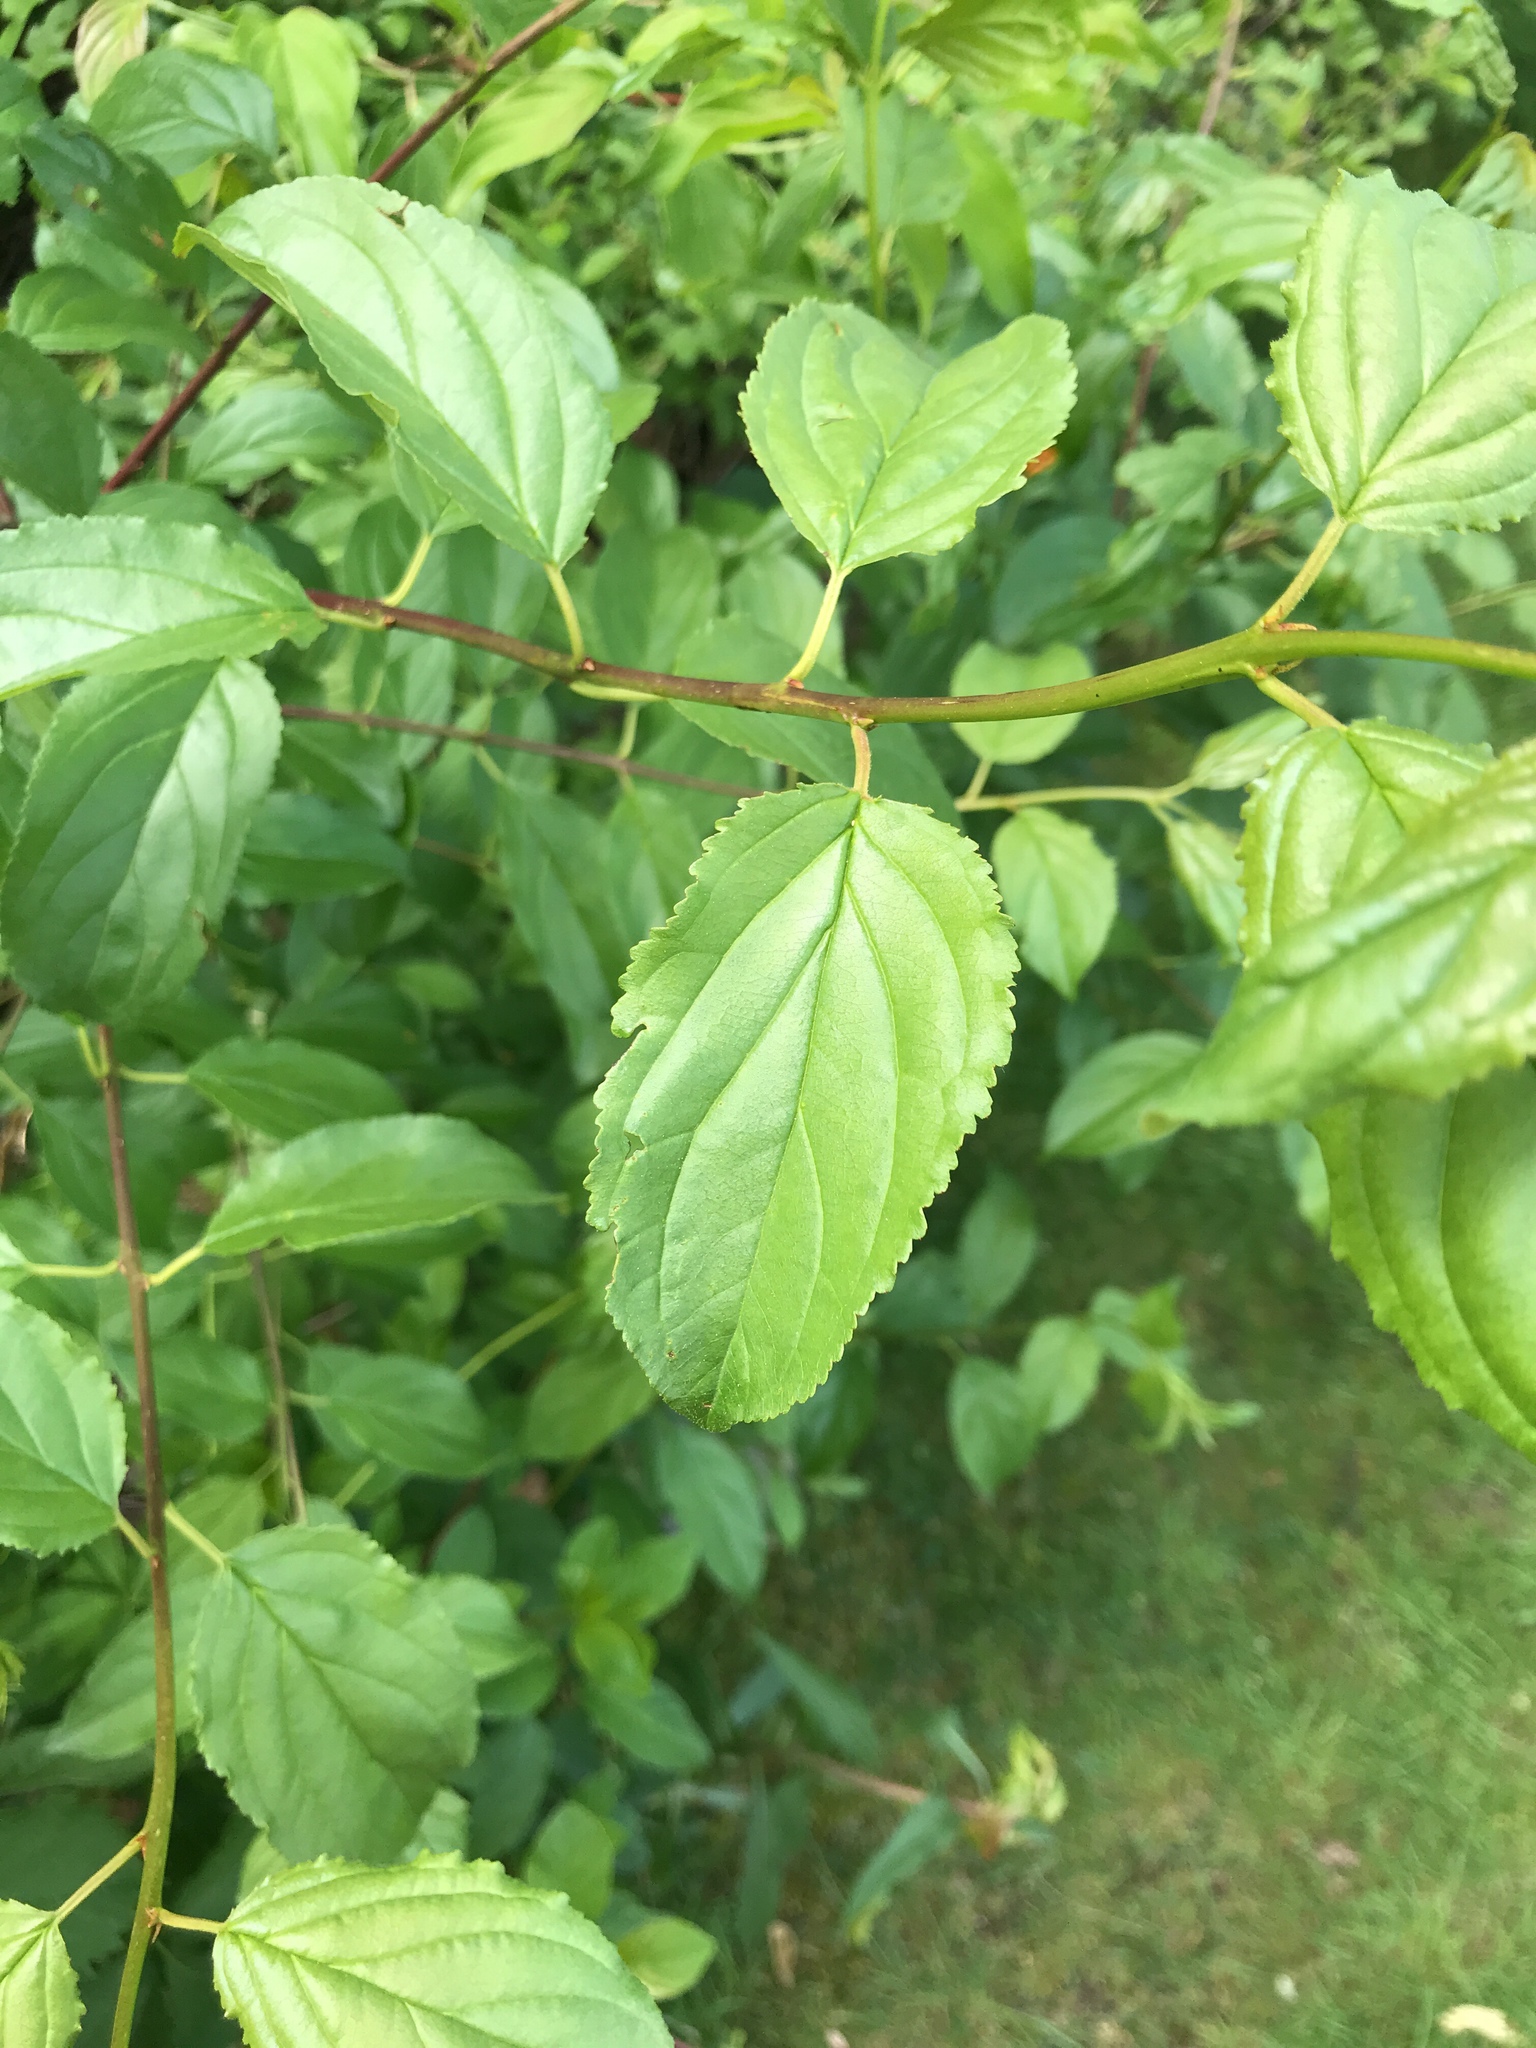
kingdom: Plantae
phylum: Tracheophyta
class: Magnoliopsida
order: Rosales
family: Rhamnaceae
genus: Rhamnus
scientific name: Rhamnus cathartica
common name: Common buckthorn
